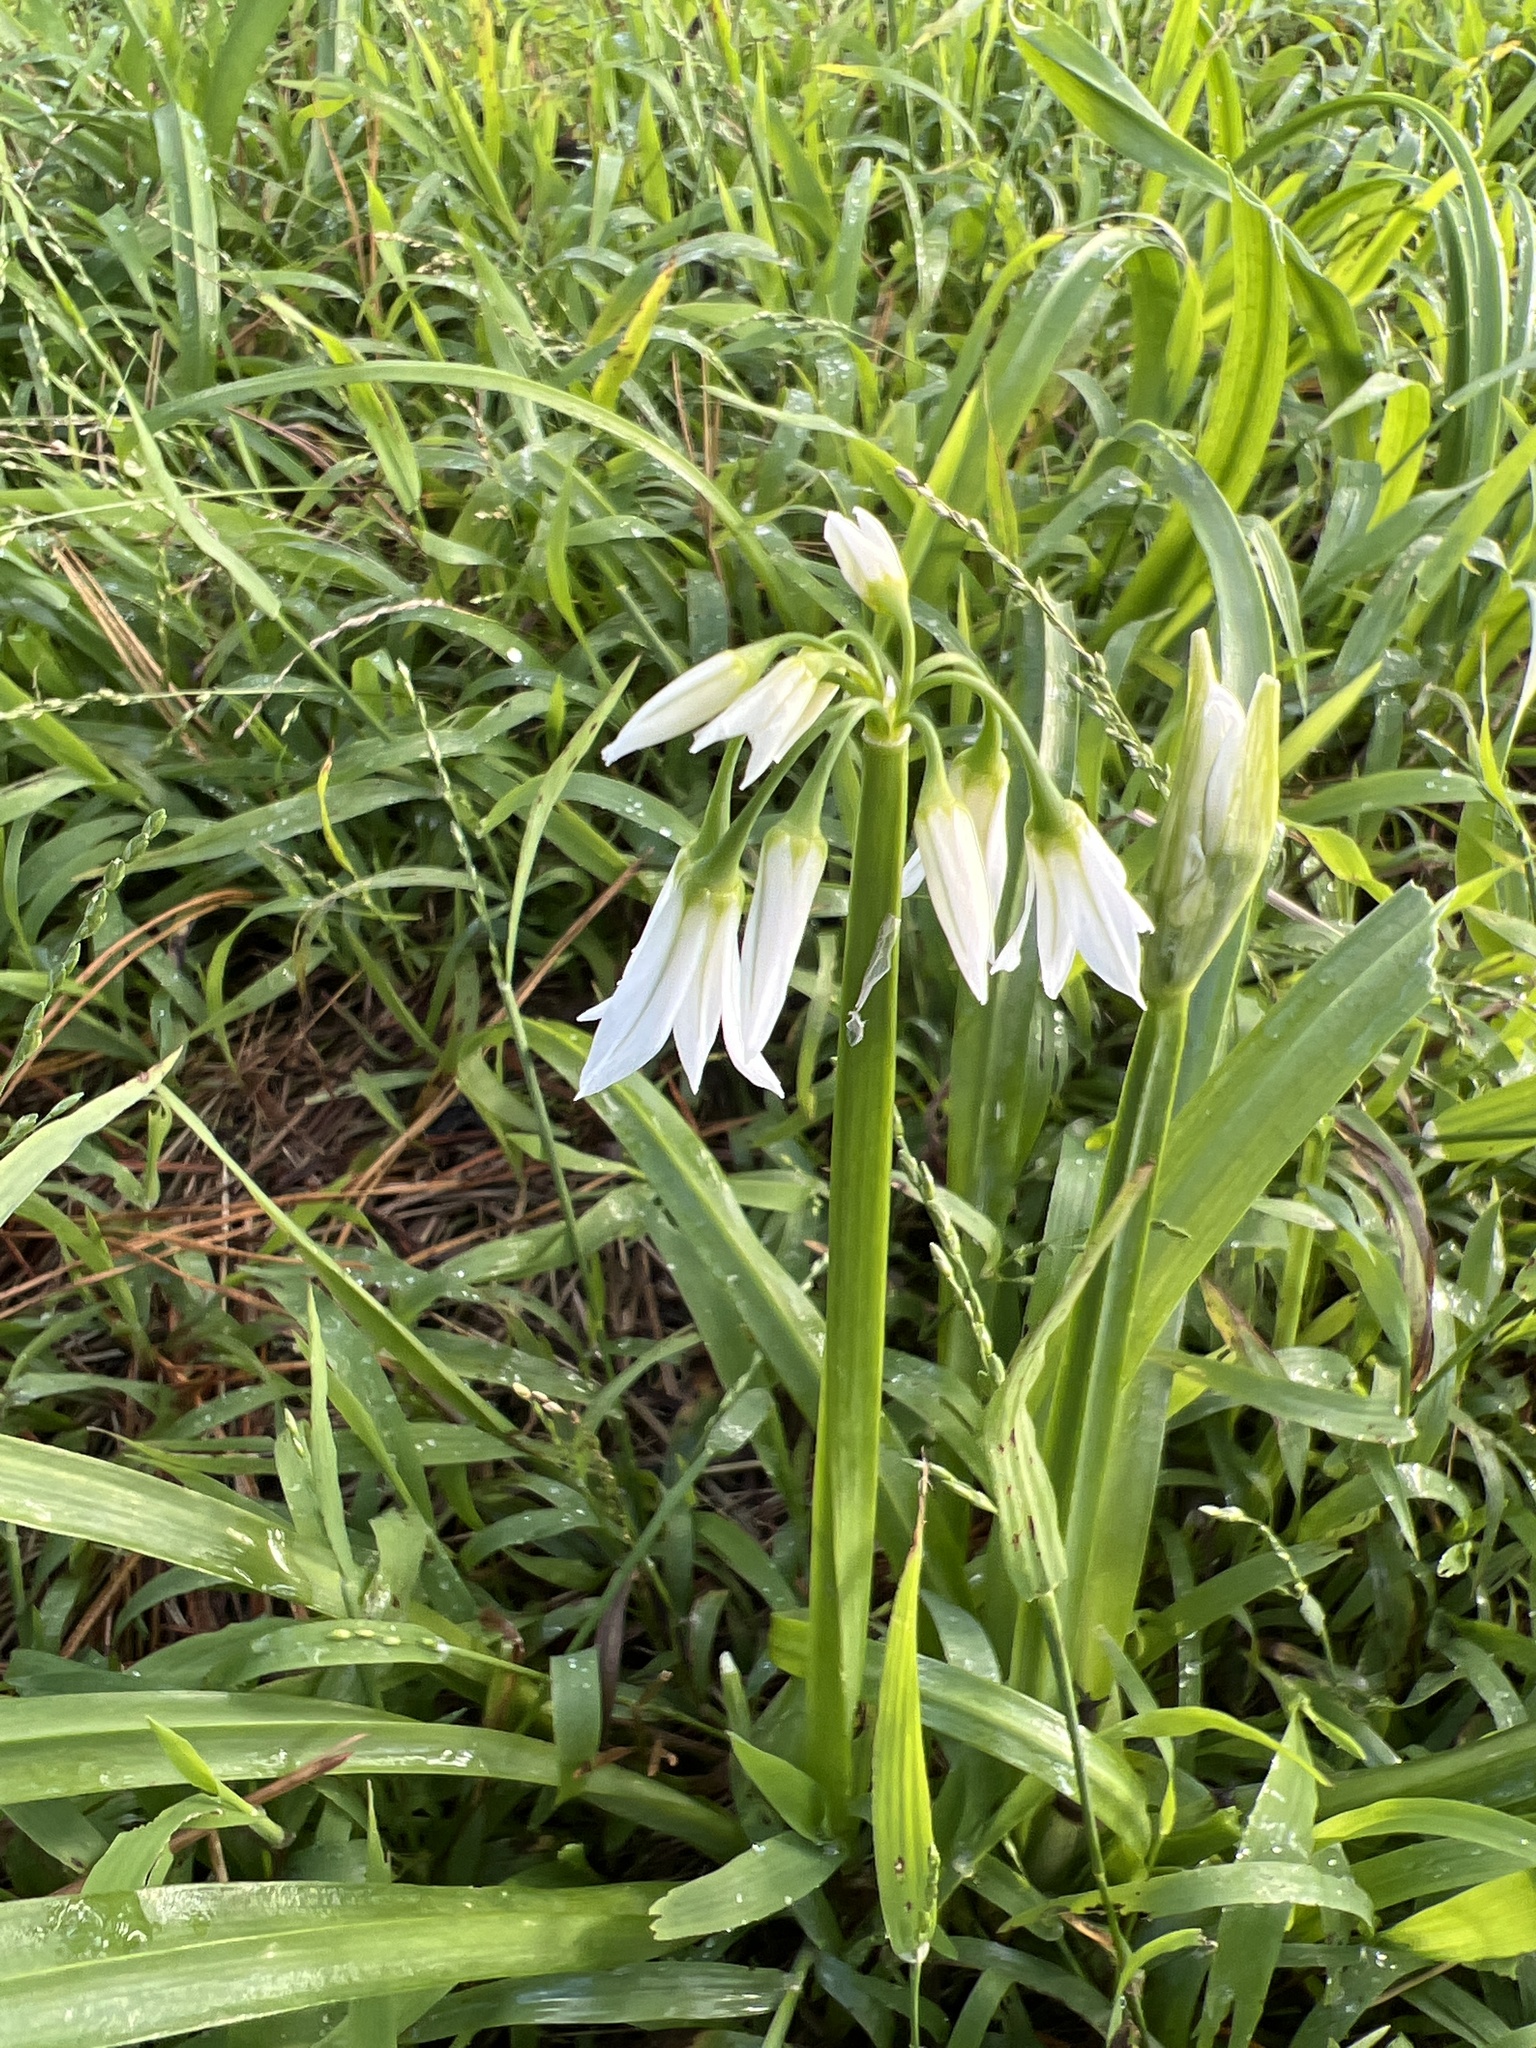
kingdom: Plantae
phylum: Tracheophyta
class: Liliopsida
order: Asparagales
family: Amaryllidaceae
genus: Allium
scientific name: Allium triquetrum
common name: Three-cornered garlic
